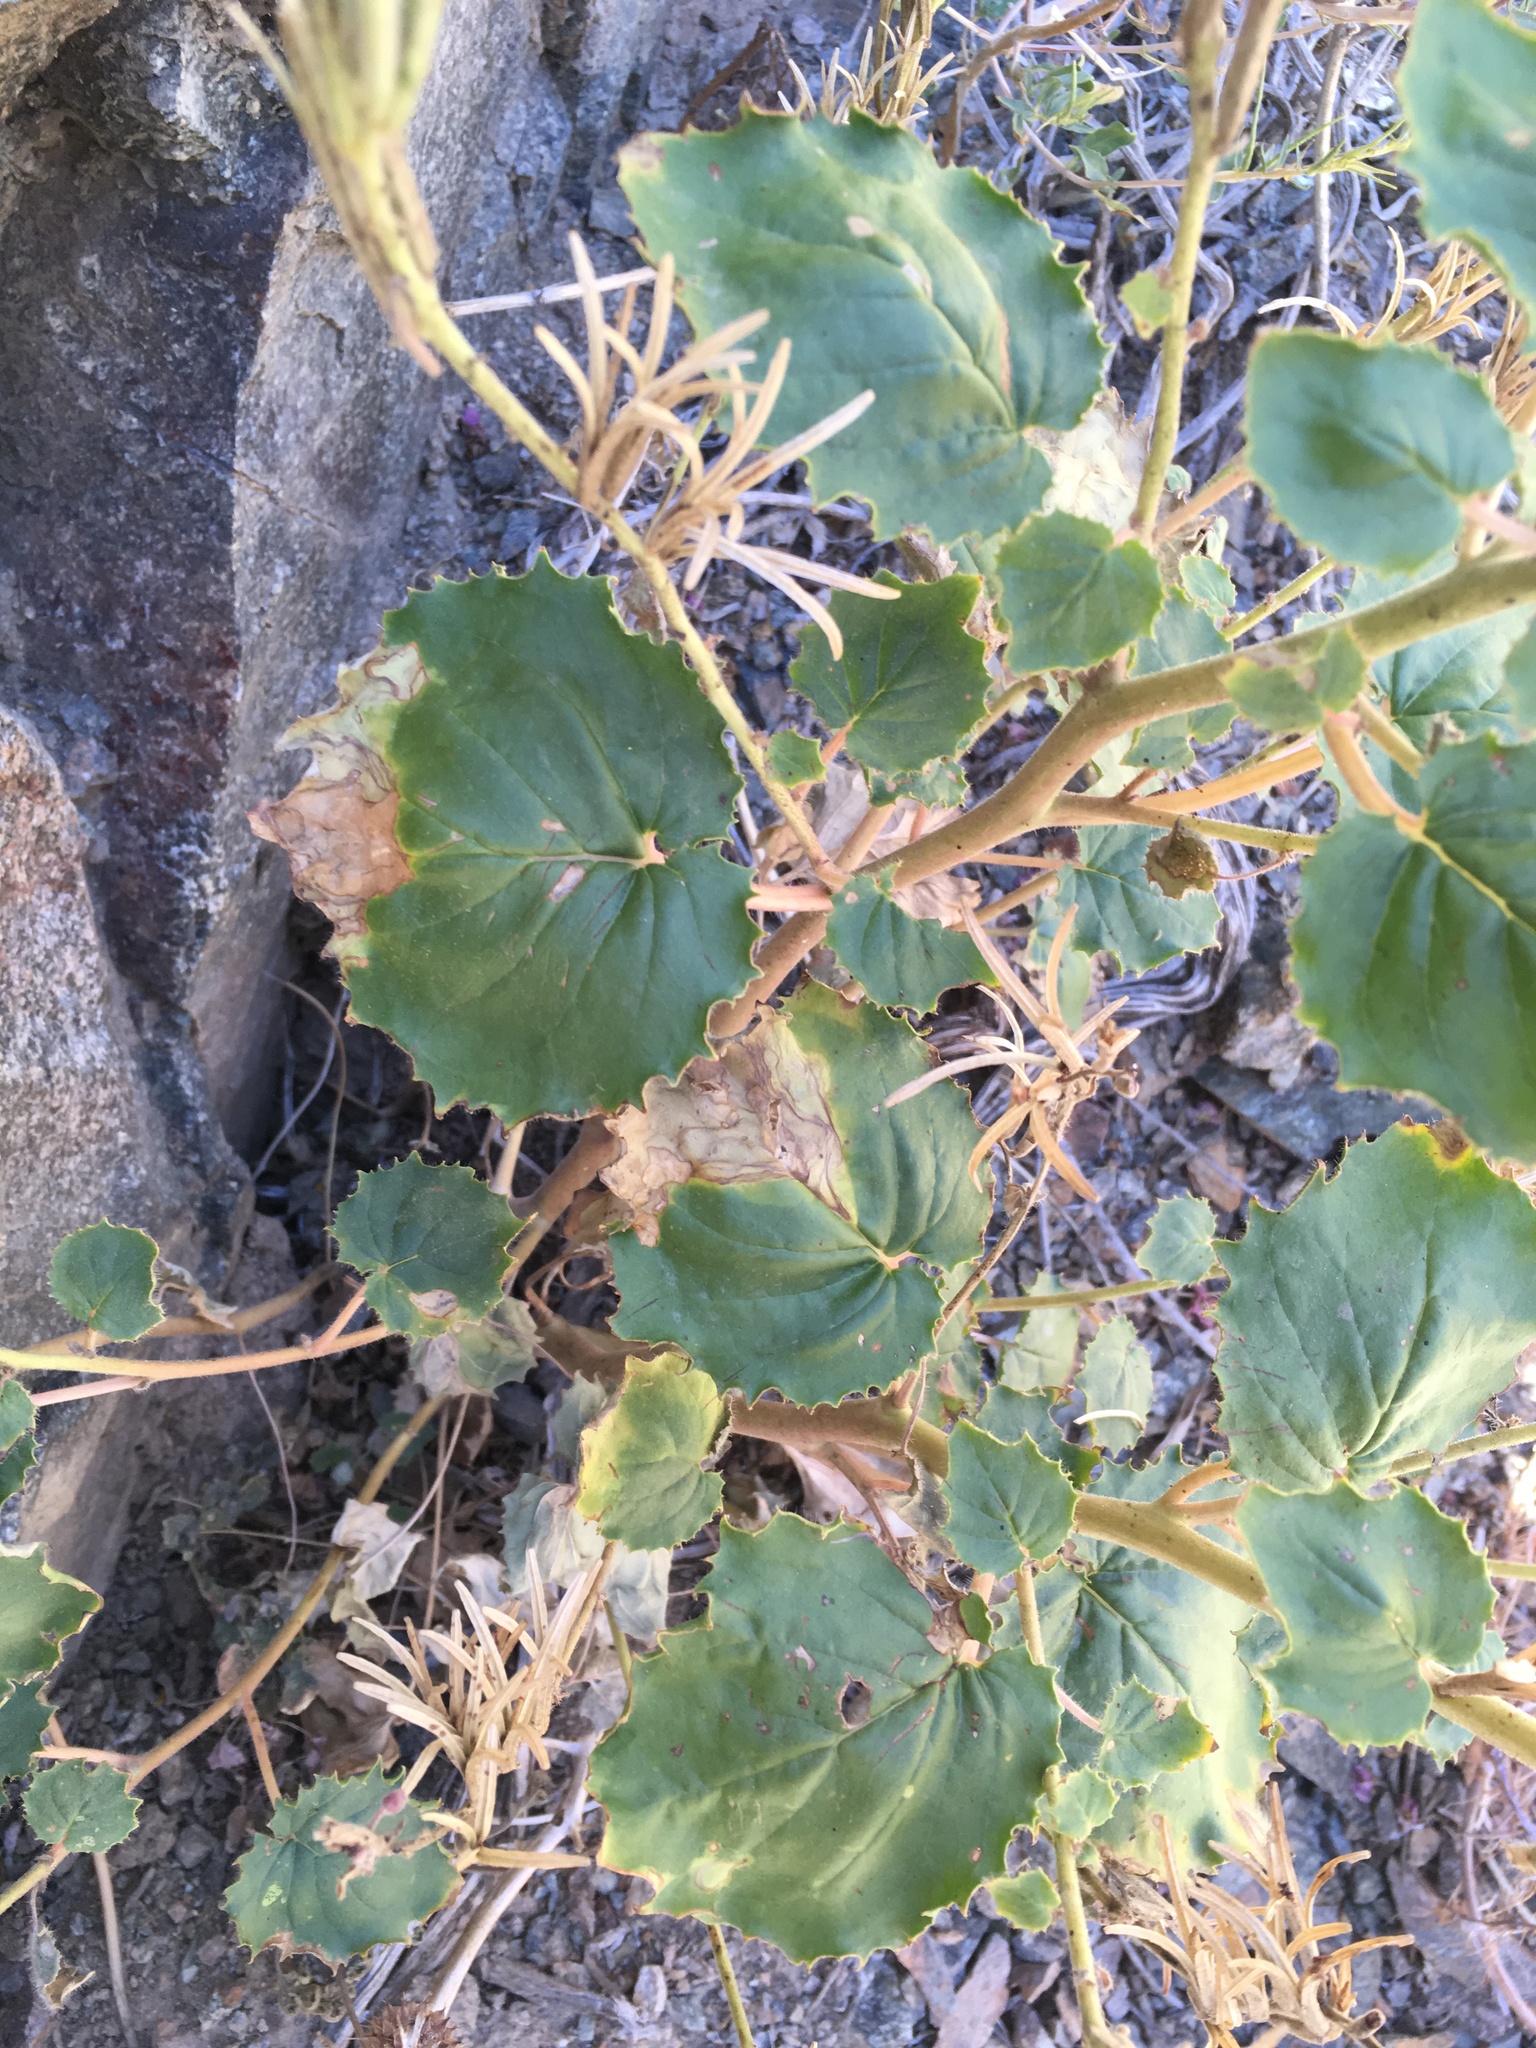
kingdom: Plantae
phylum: Tracheophyta
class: Magnoliopsida
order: Myrtales
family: Onagraceae
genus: Chylismia
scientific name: Chylismia cardiophylla
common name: Heartleaf suncup
